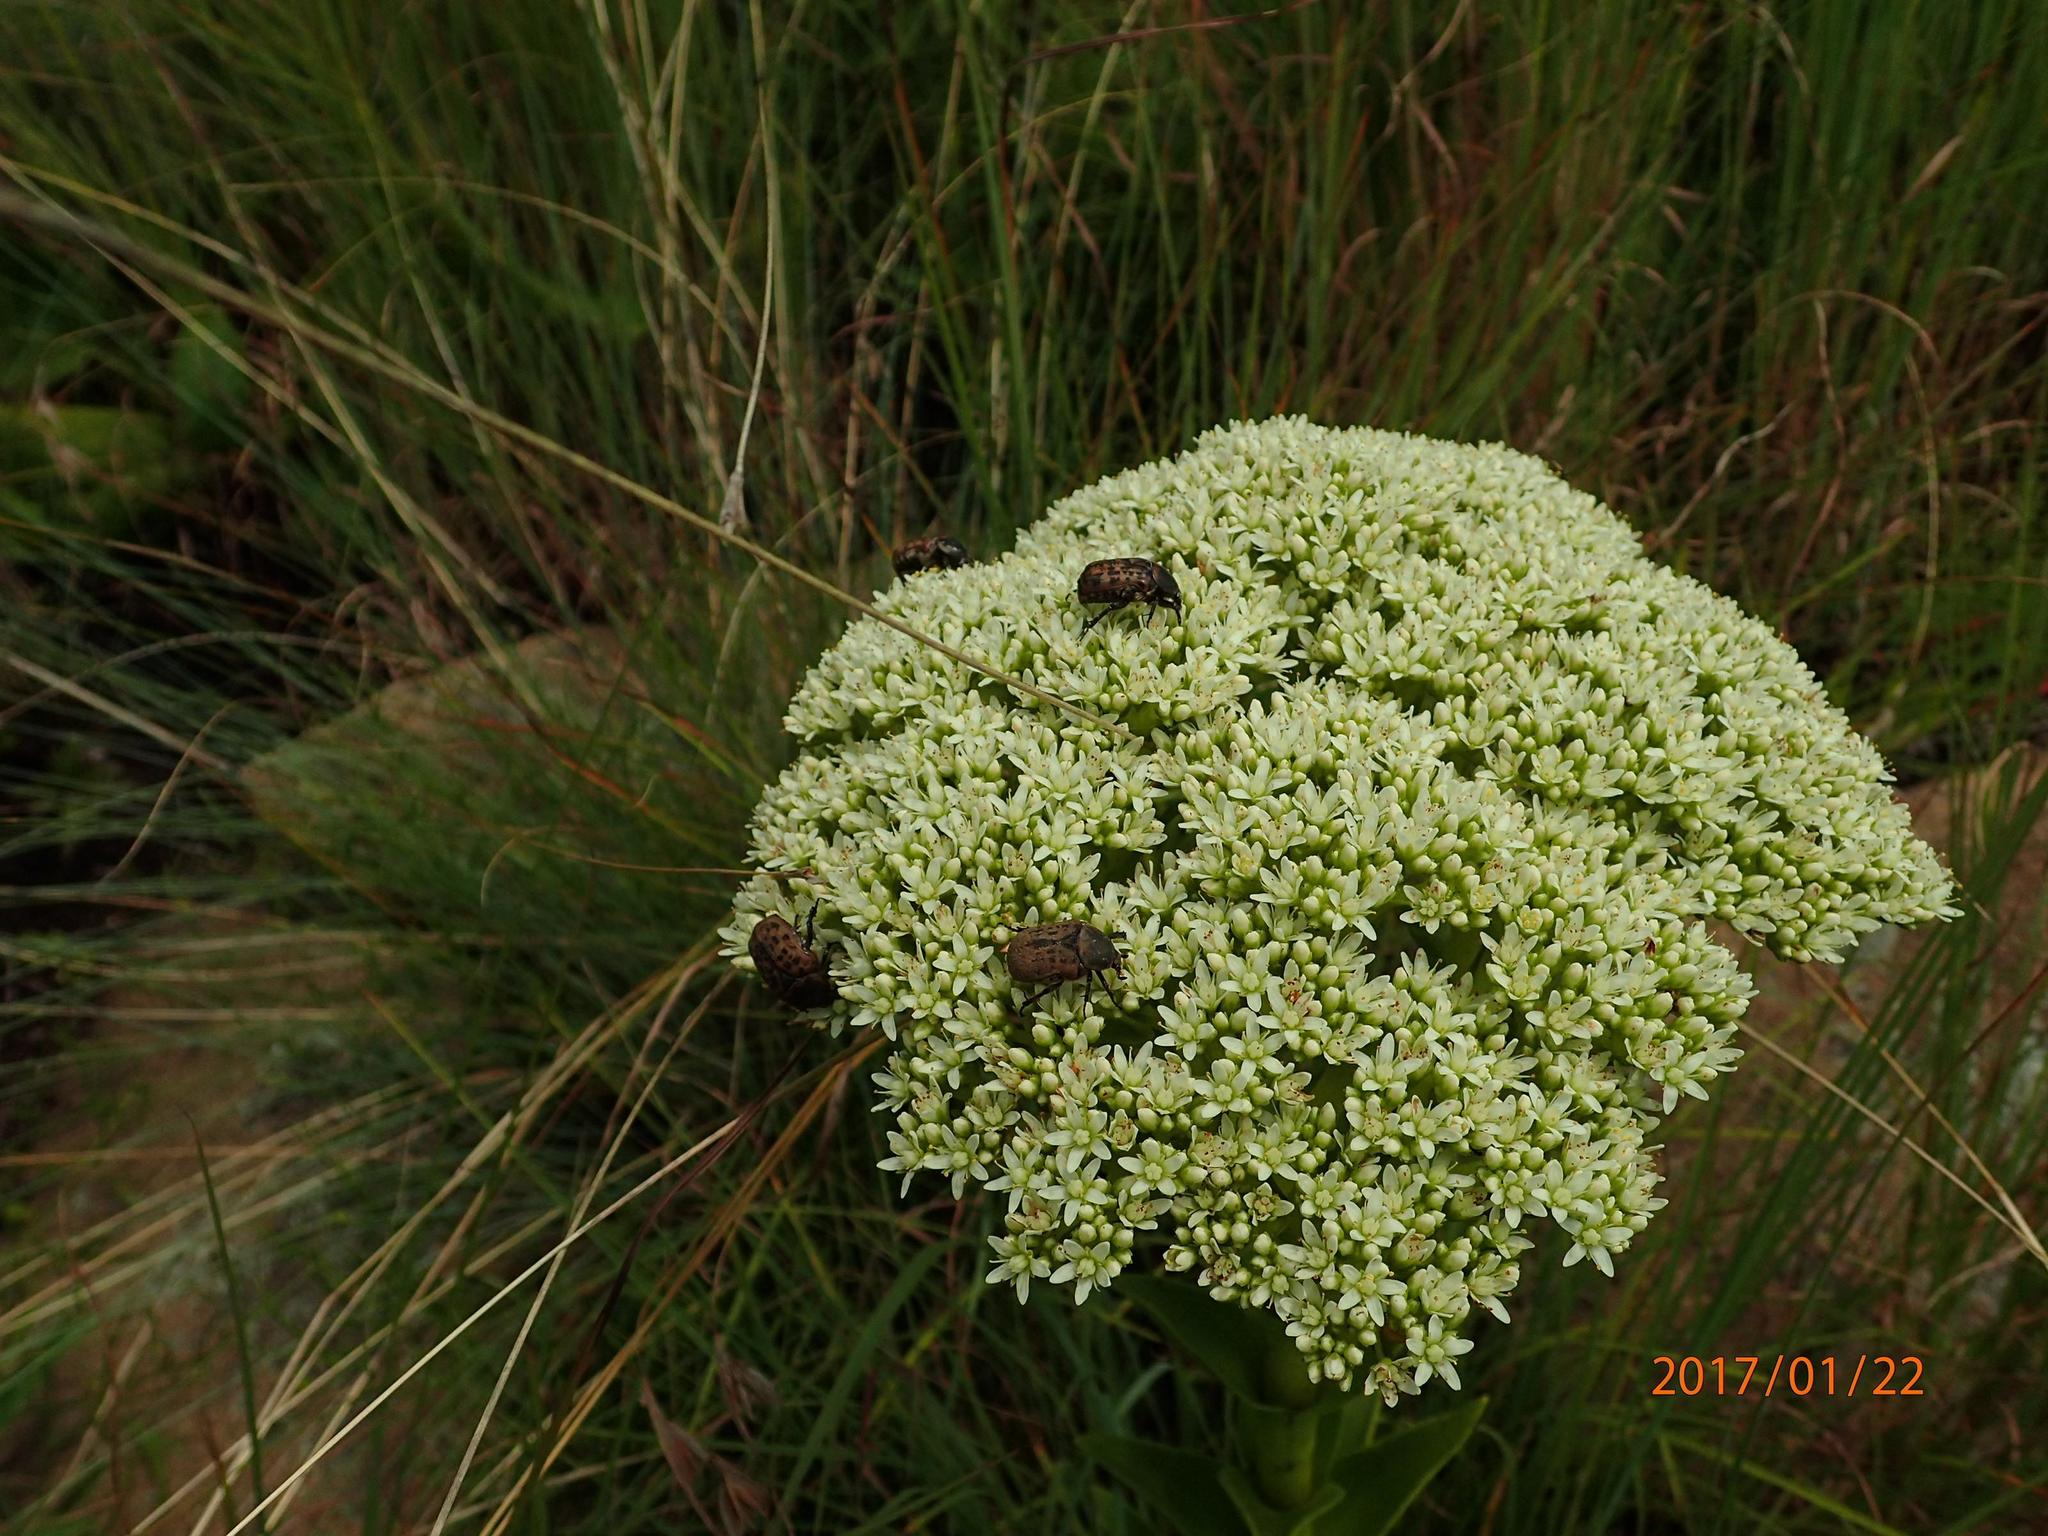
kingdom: Animalia
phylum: Arthropoda
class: Insecta
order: Coleoptera
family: Scarabaeidae
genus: Atrichelaphinis
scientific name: Atrichelaphinis tigrina
